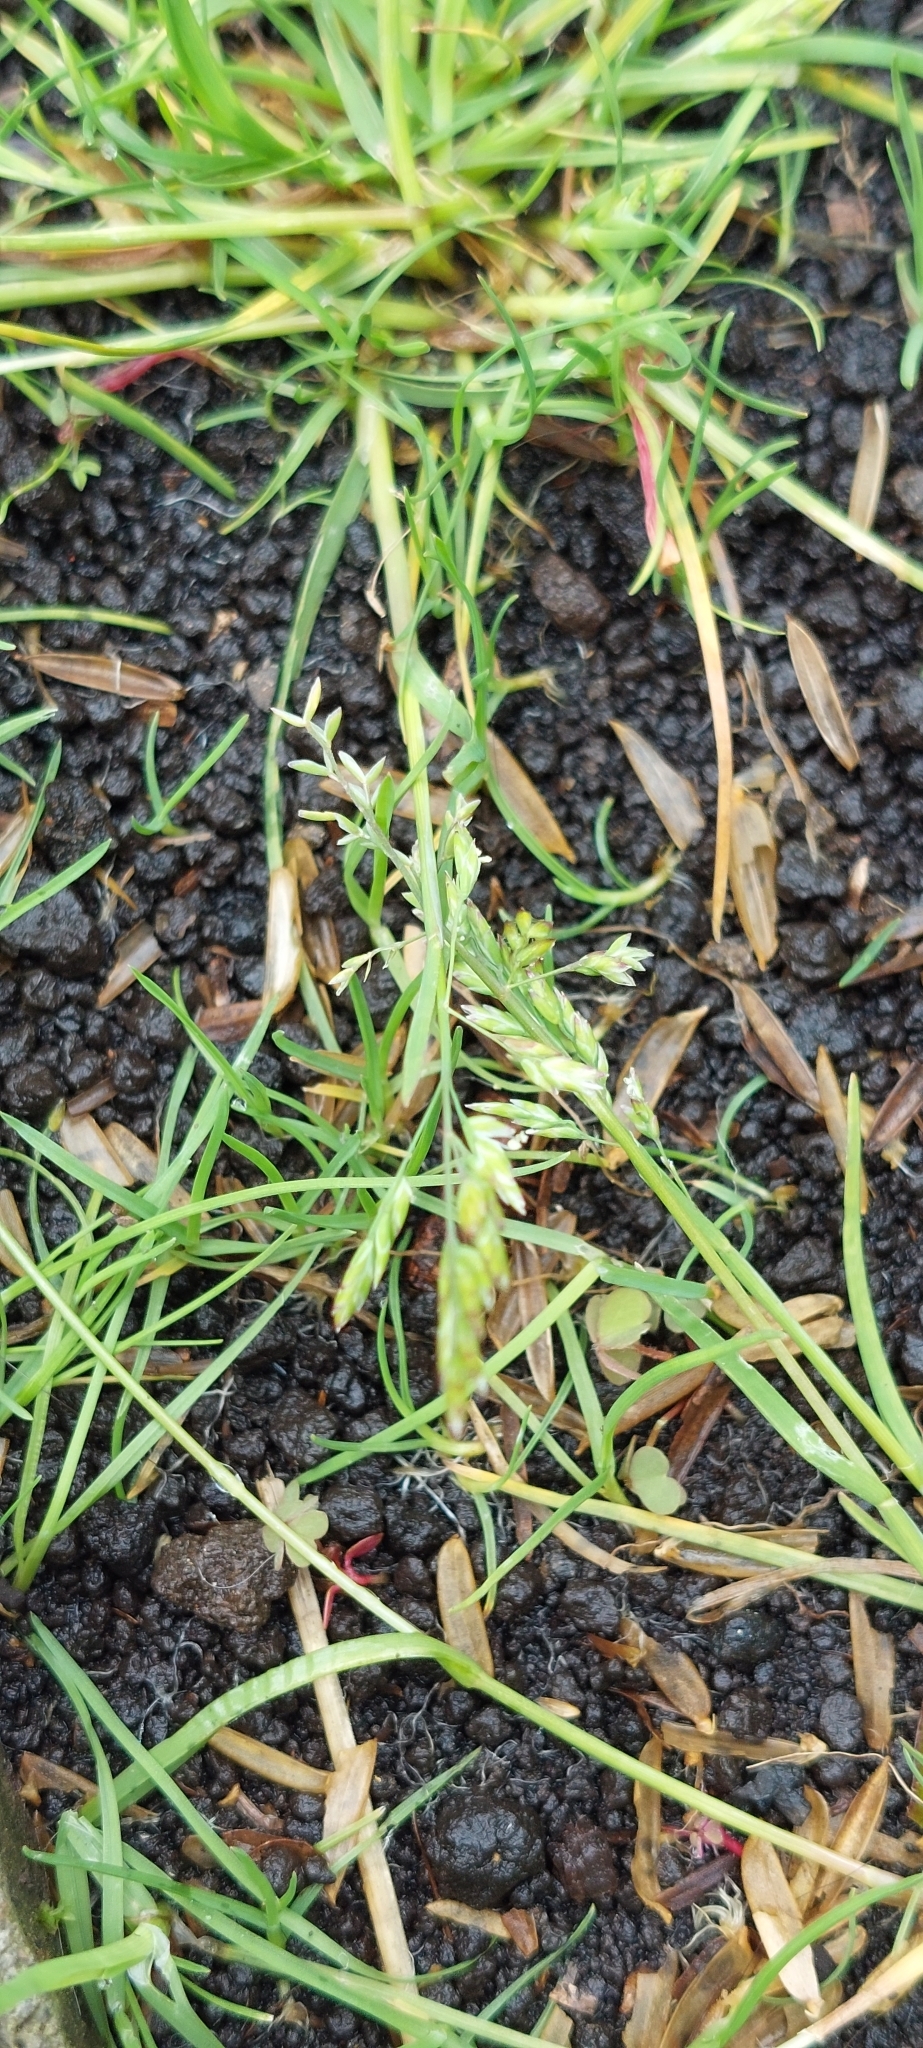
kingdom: Plantae
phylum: Tracheophyta
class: Liliopsida
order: Poales
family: Poaceae
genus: Poa
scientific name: Poa annua
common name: Annual bluegrass
